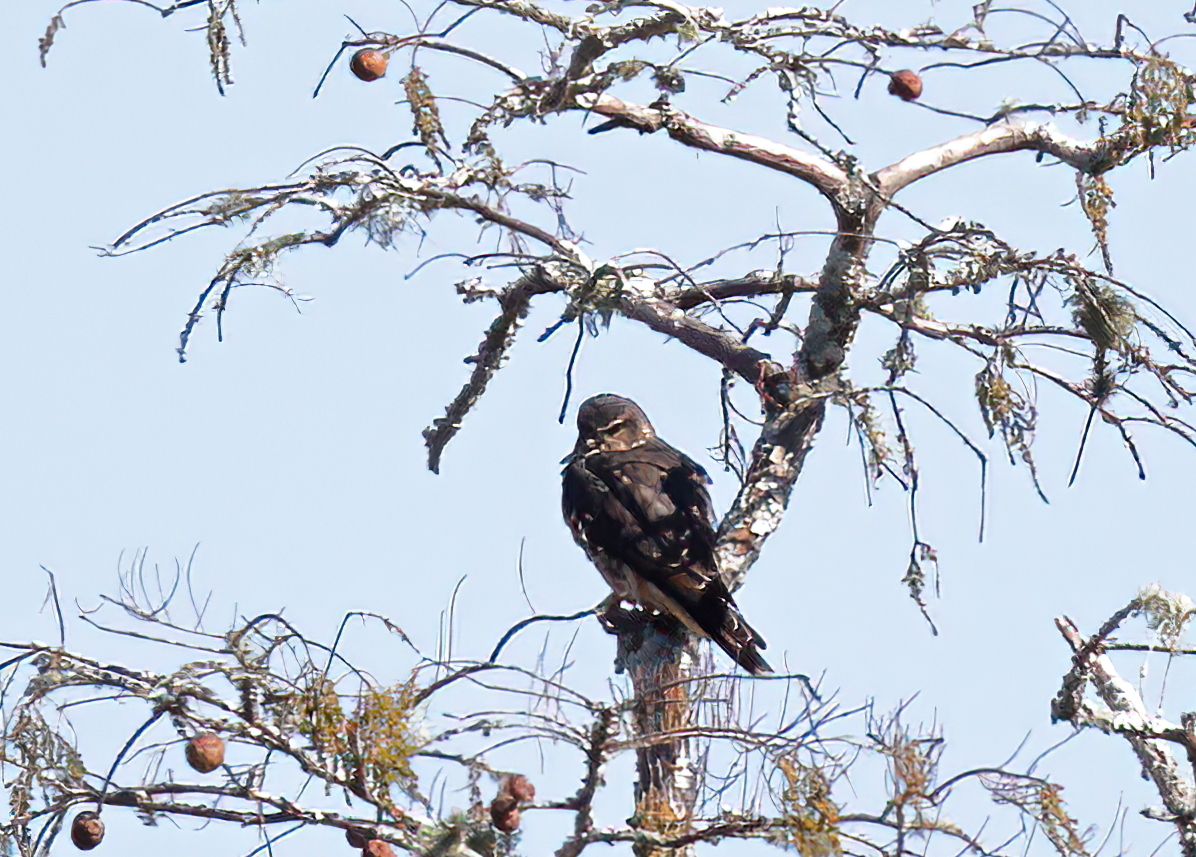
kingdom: Animalia
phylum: Chordata
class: Aves
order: Falconiformes
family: Falconidae
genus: Falco
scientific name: Falco columbarius
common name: Merlin
